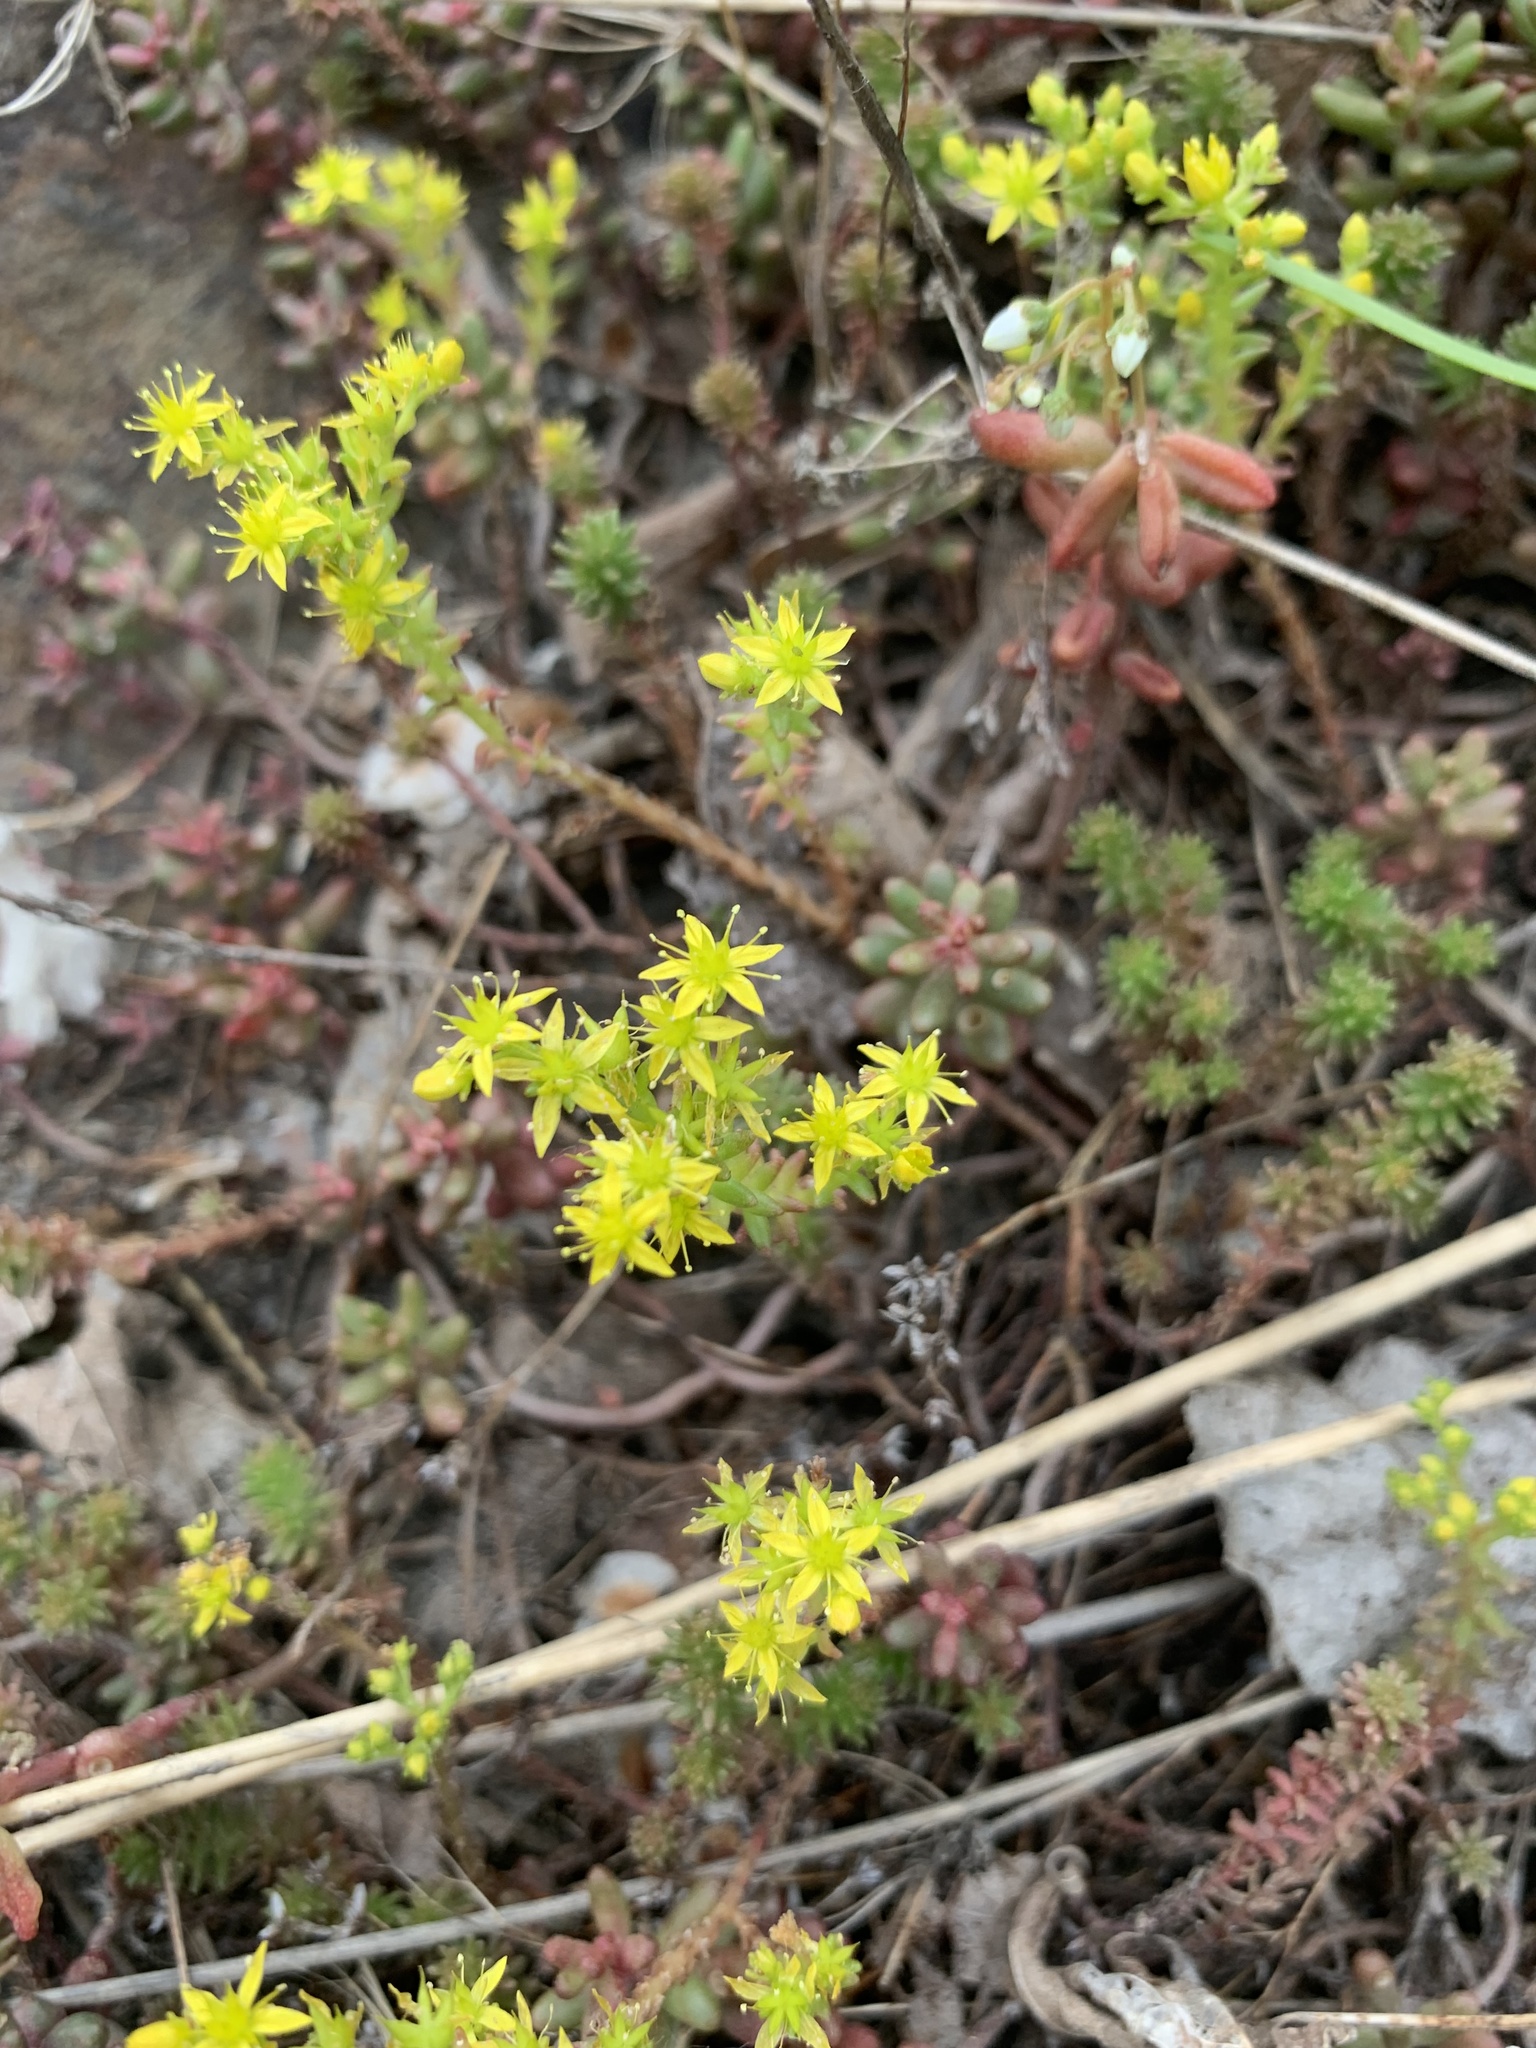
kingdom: Plantae
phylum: Tracheophyta
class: Magnoliopsida
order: Saxifragales
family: Crassulaceae
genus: Sedum
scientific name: Sedum sexangulare
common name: Tasteless stonecrop
